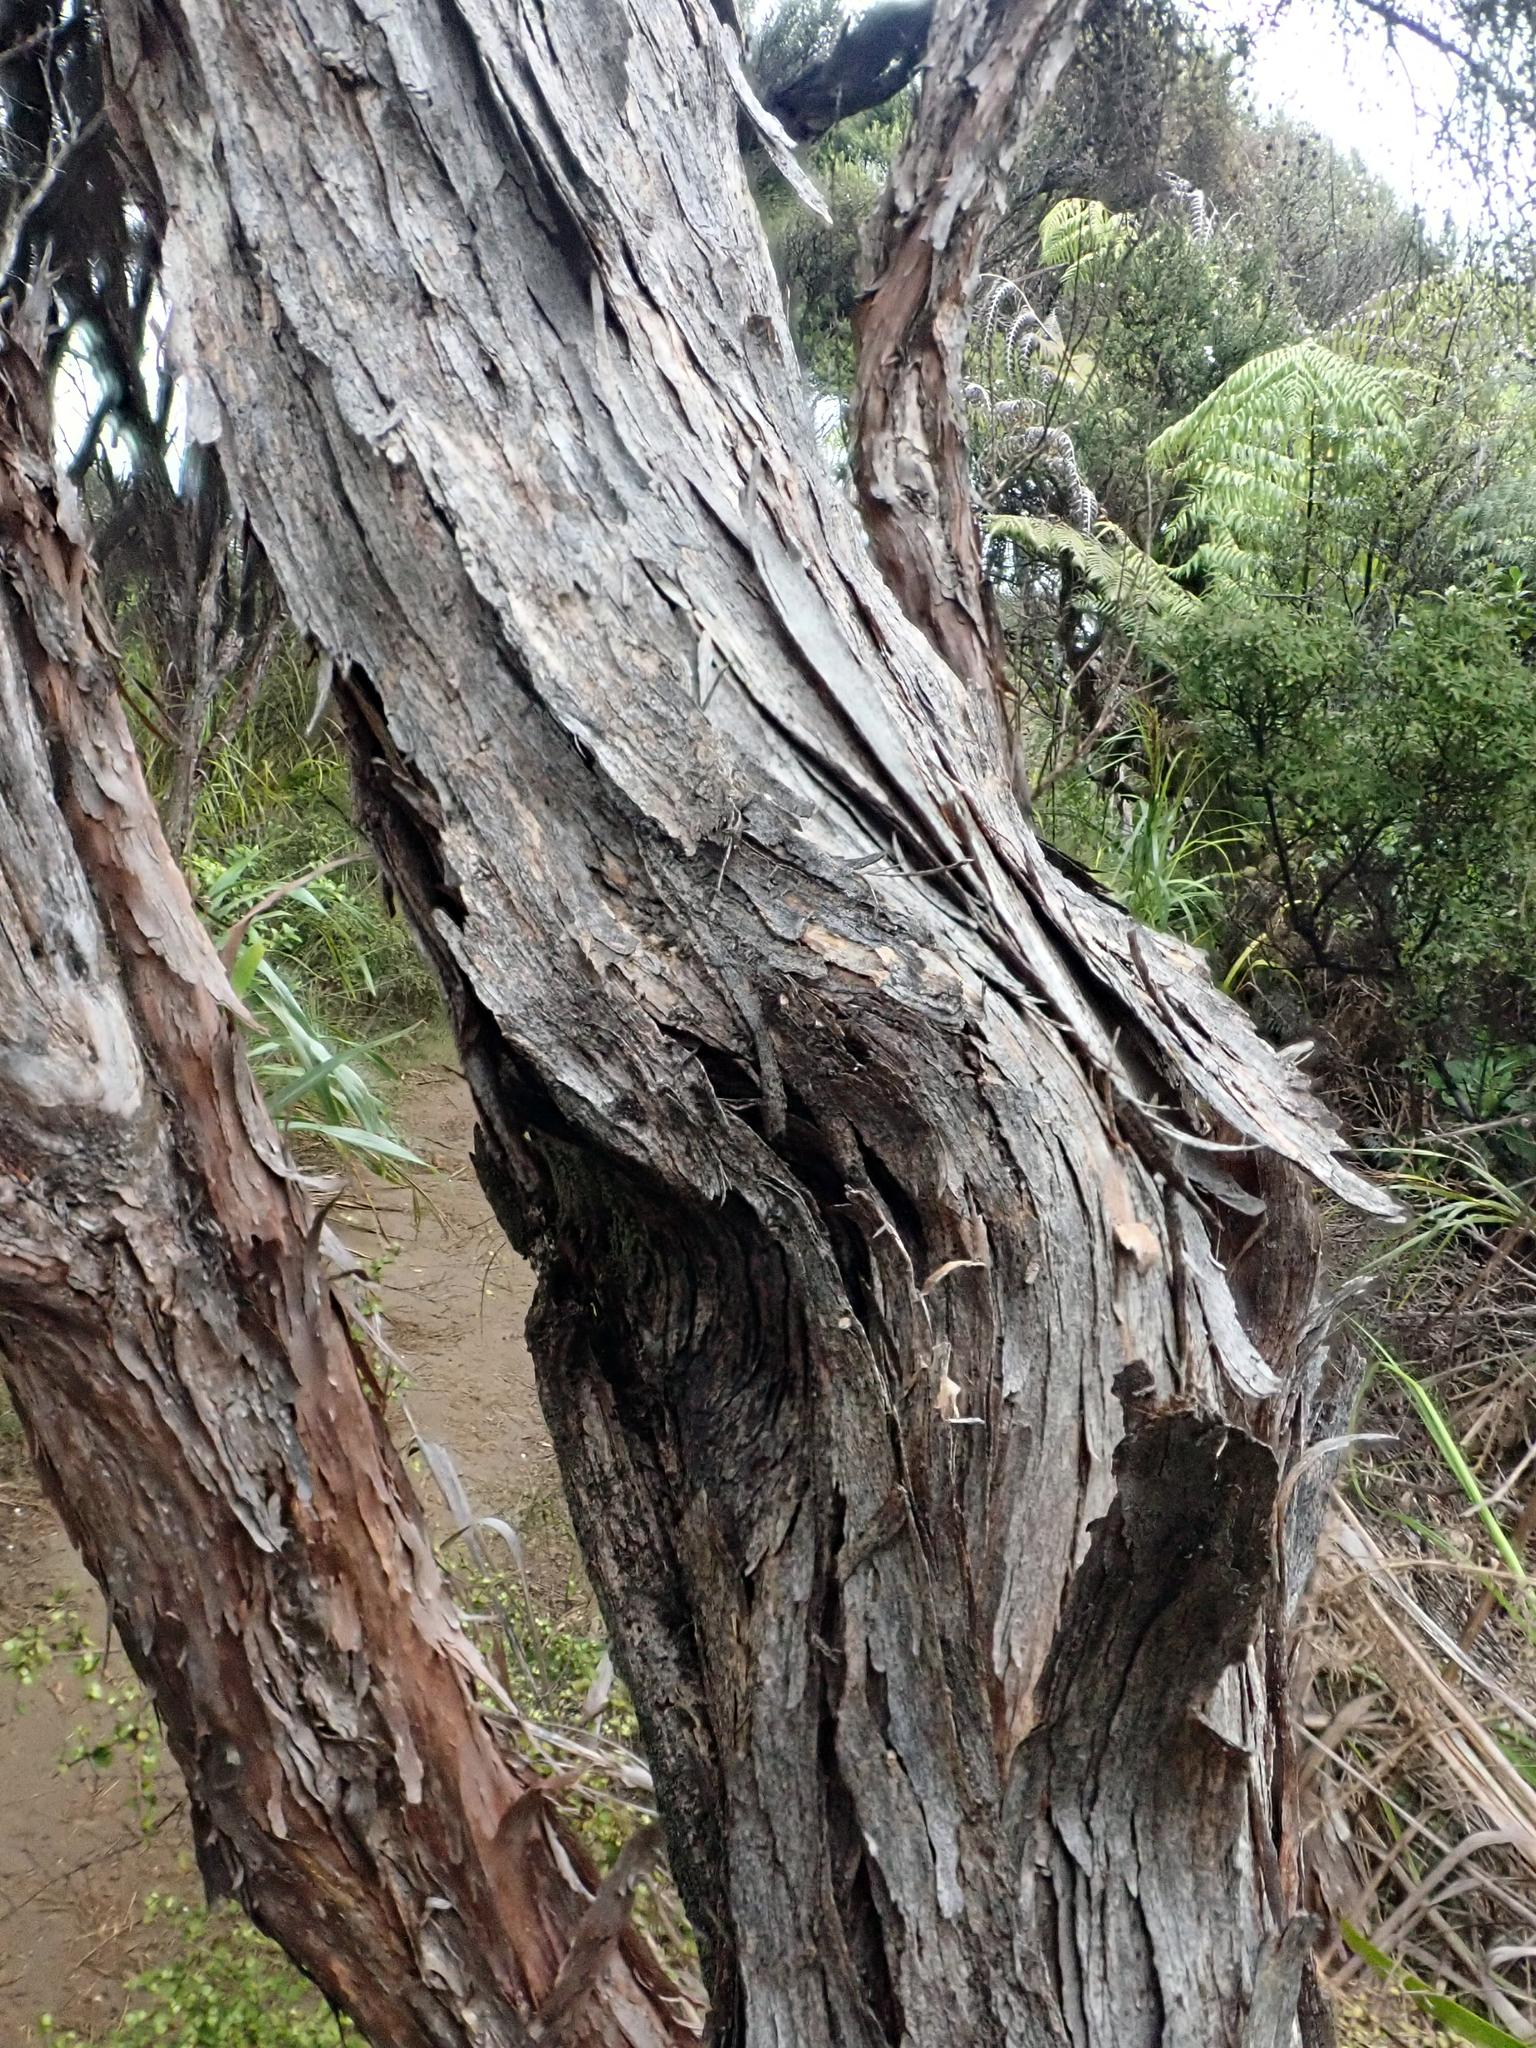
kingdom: Plantae
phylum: Tracheophyta
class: Magnoliopsida
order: Myrtales
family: Myrtaceae
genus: Leptospermum
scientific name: Leptospermum scoparium
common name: Broom tea-tree
